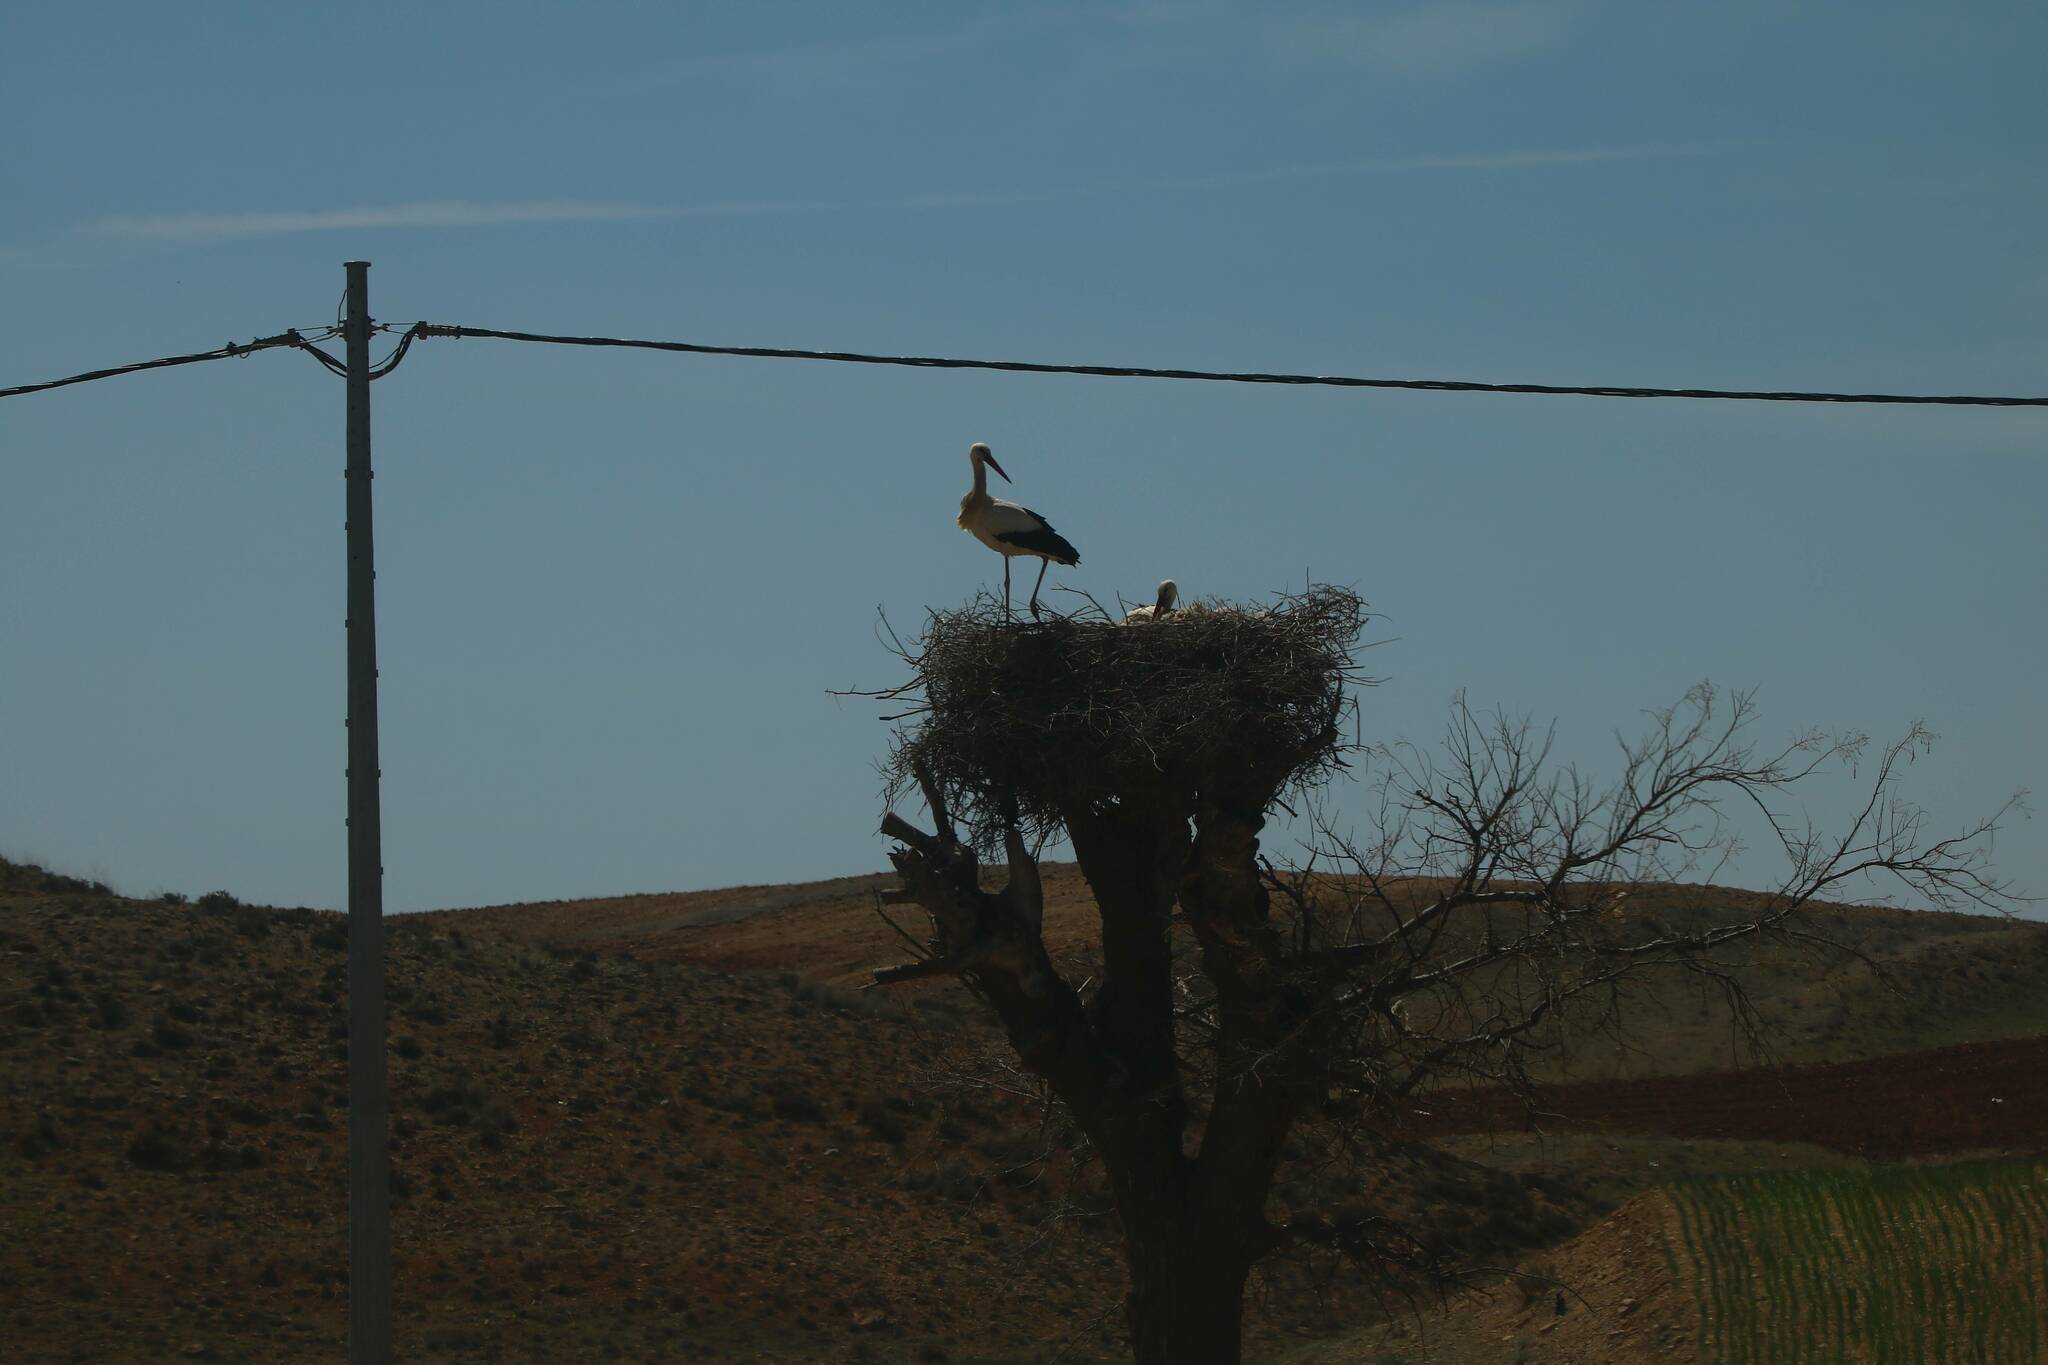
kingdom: Animalia
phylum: Chordata
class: Aves
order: Ciconiiformes
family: Ciconiidae
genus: Ciconia
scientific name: Ciconia ciconia
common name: White stork
